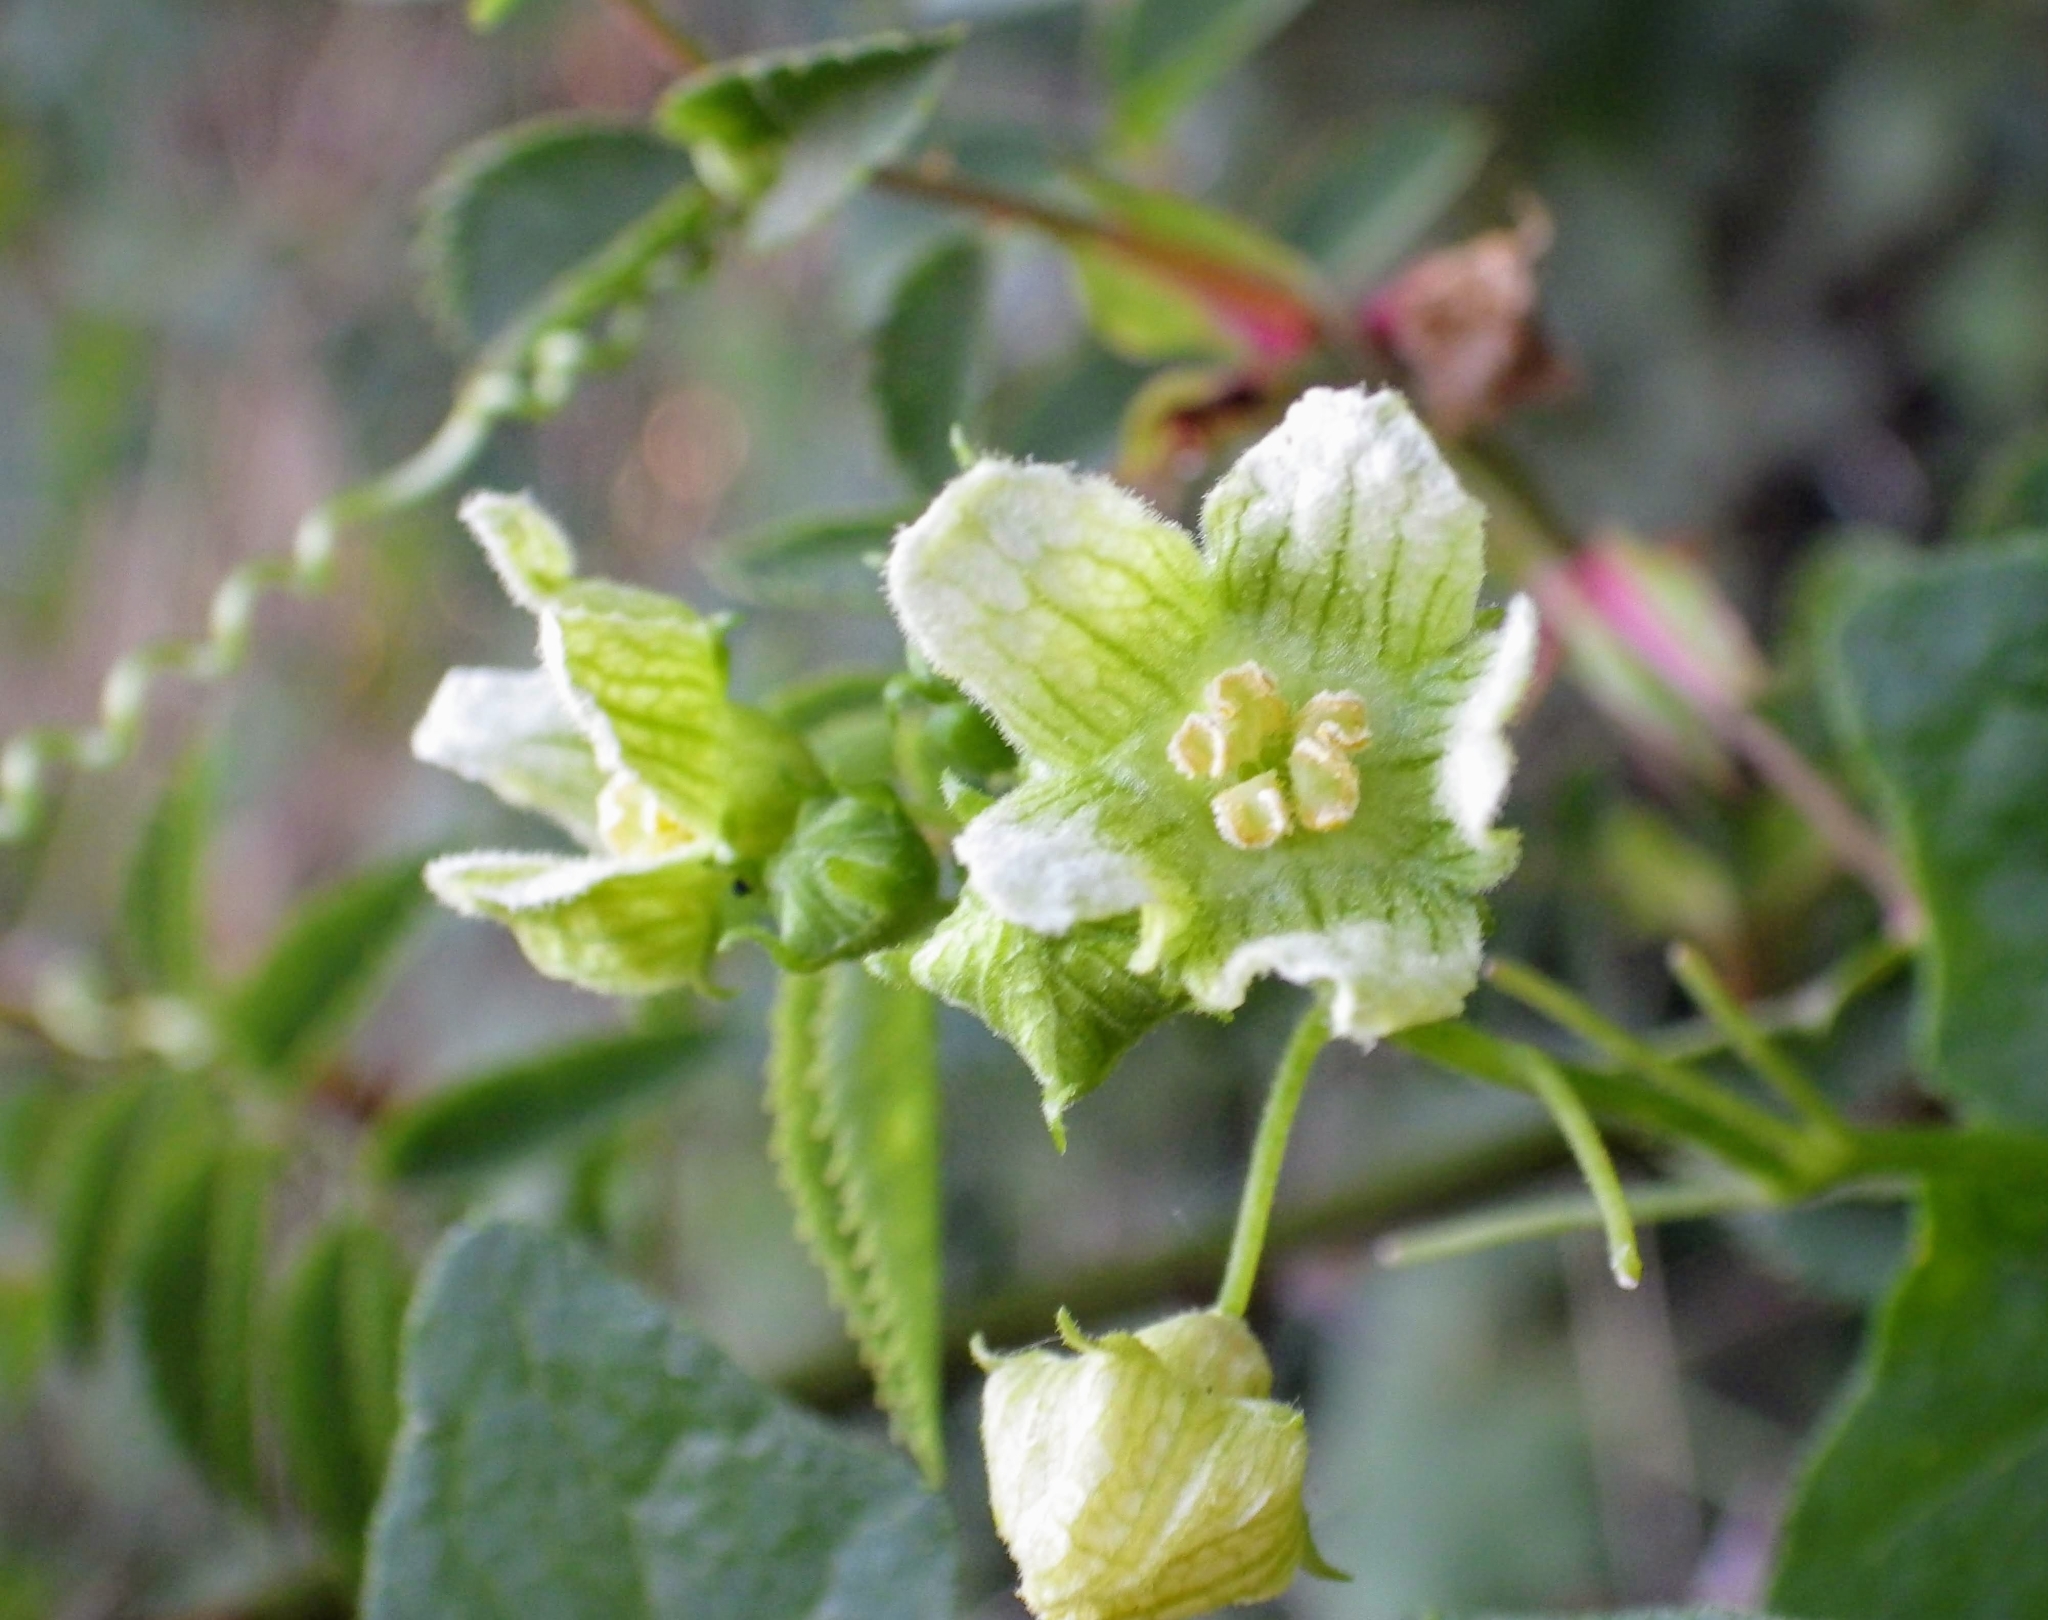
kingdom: Plantae
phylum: Tracheophyta
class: Magnoliopsida
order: Cucurbitales
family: Cucurbitaceae
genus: Bryonia
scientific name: Bryonia cretica
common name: Cretan bryony
